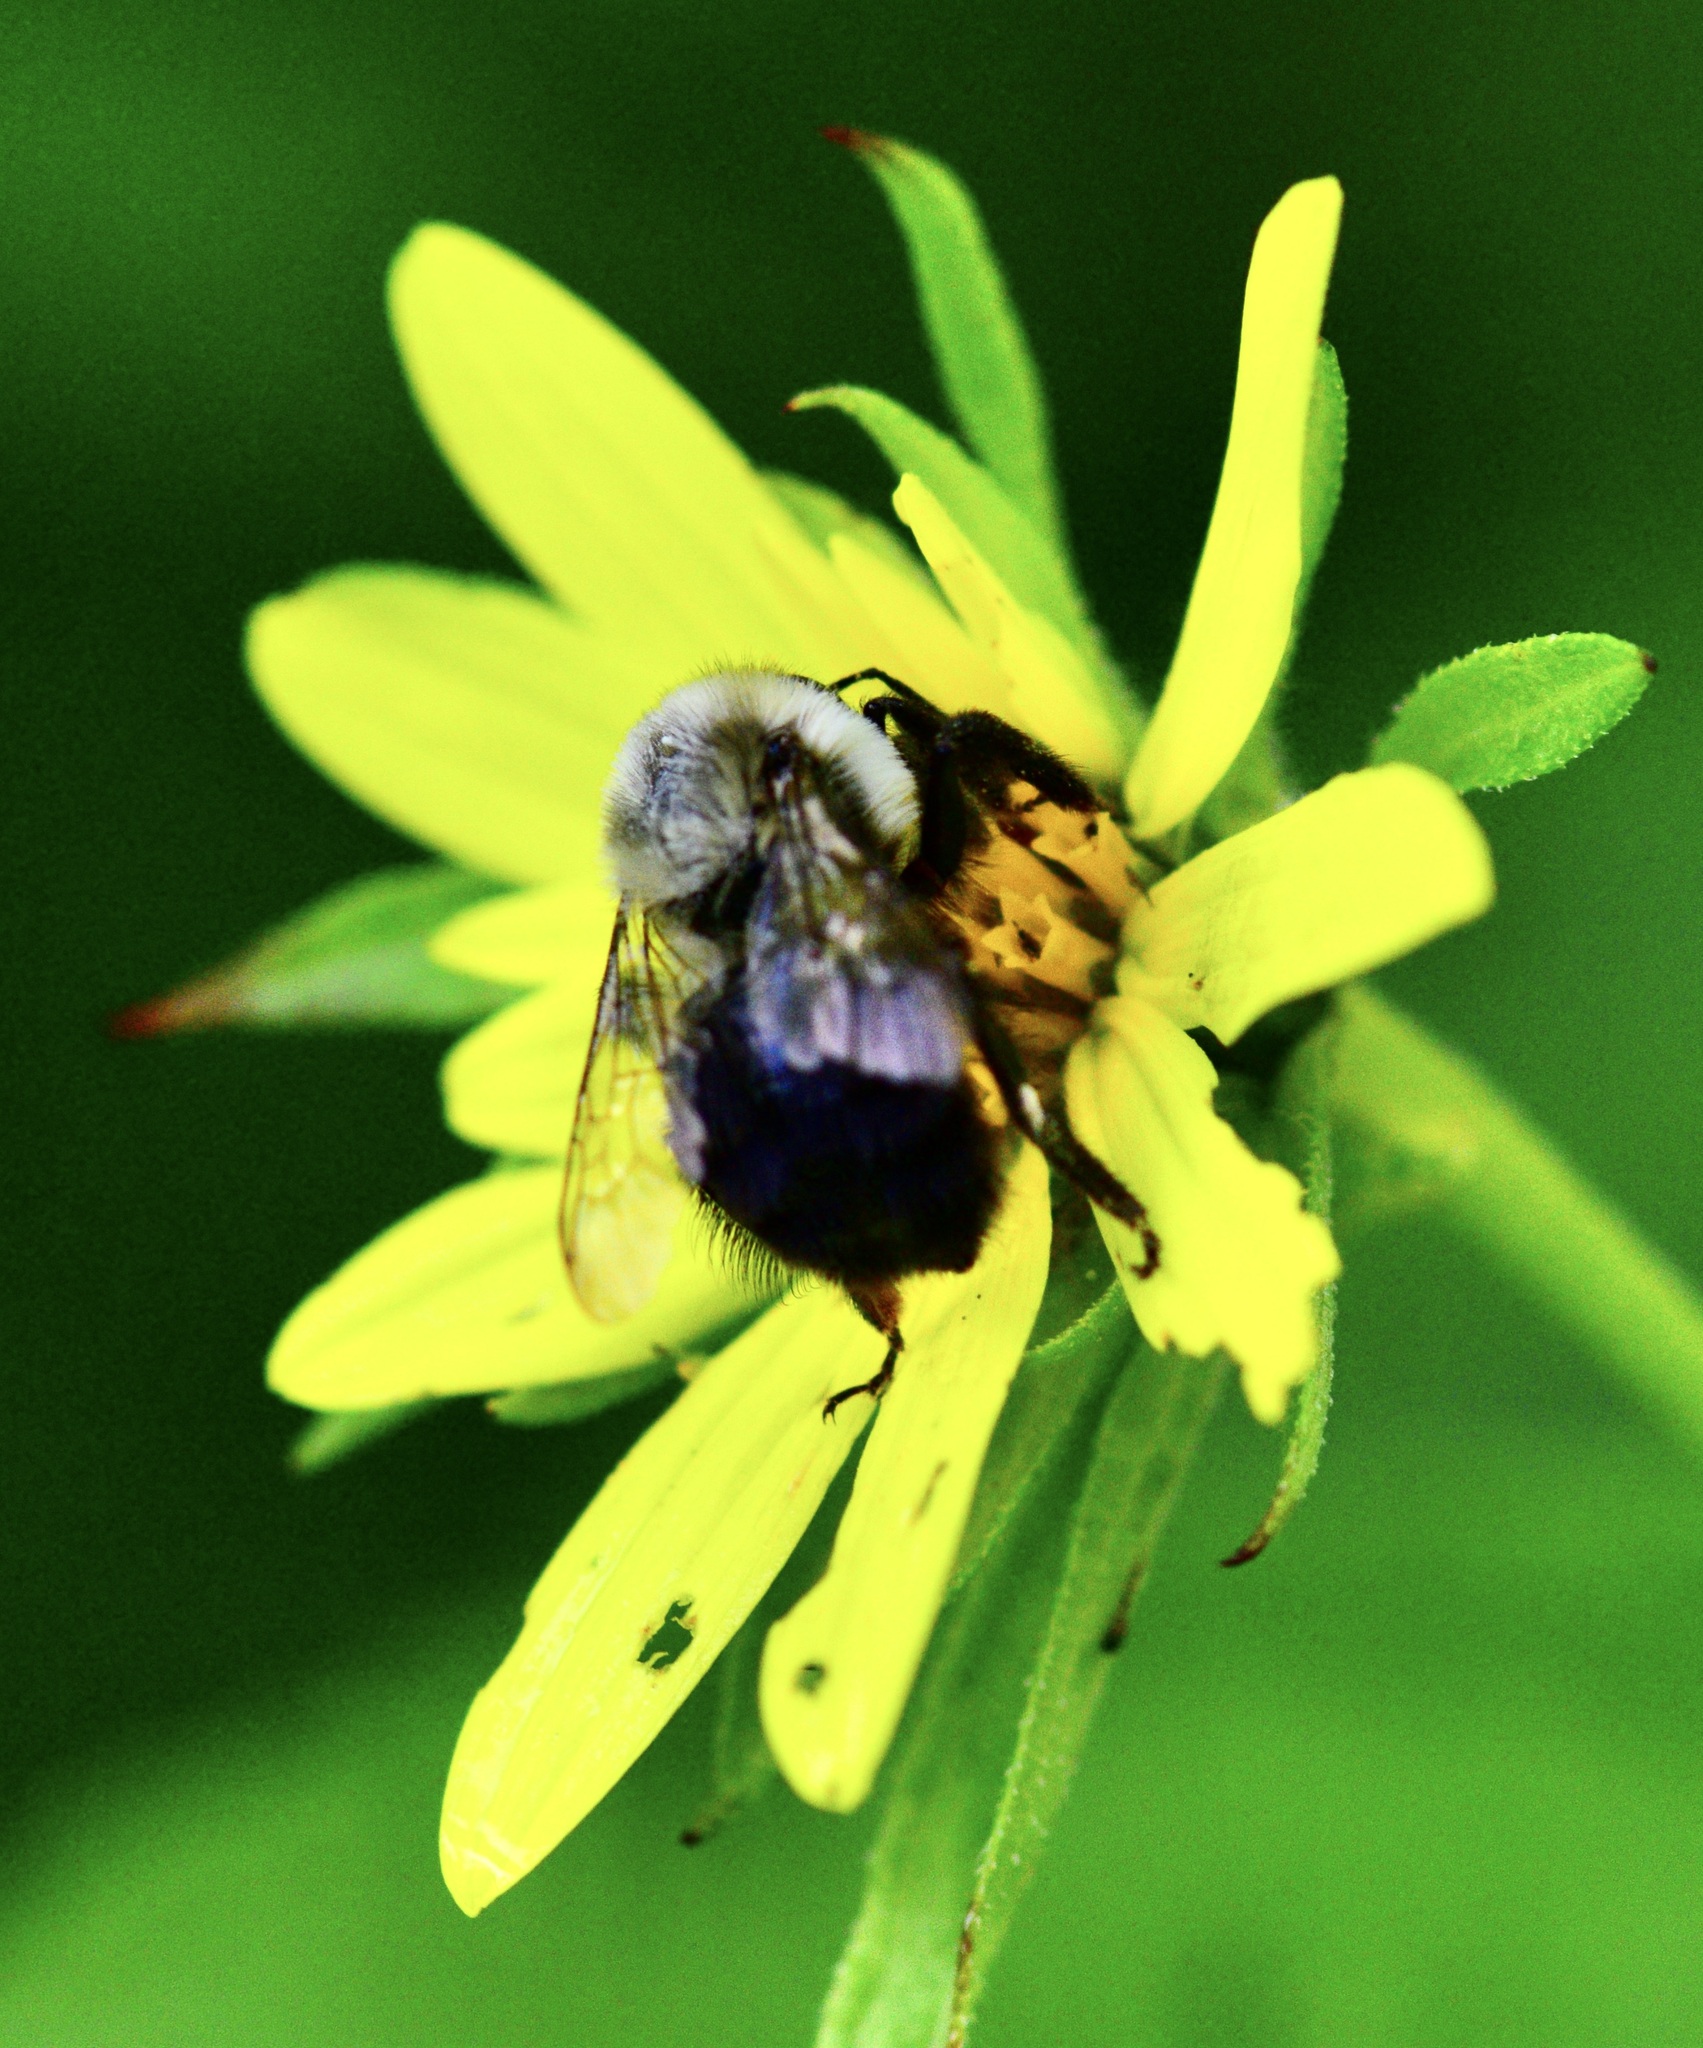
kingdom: Animalia
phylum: Arthropoda
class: Insecta
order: Hymenoptera
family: Apidae
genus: Bombus
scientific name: Bombus impatiens
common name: Common eastern bumble bee
